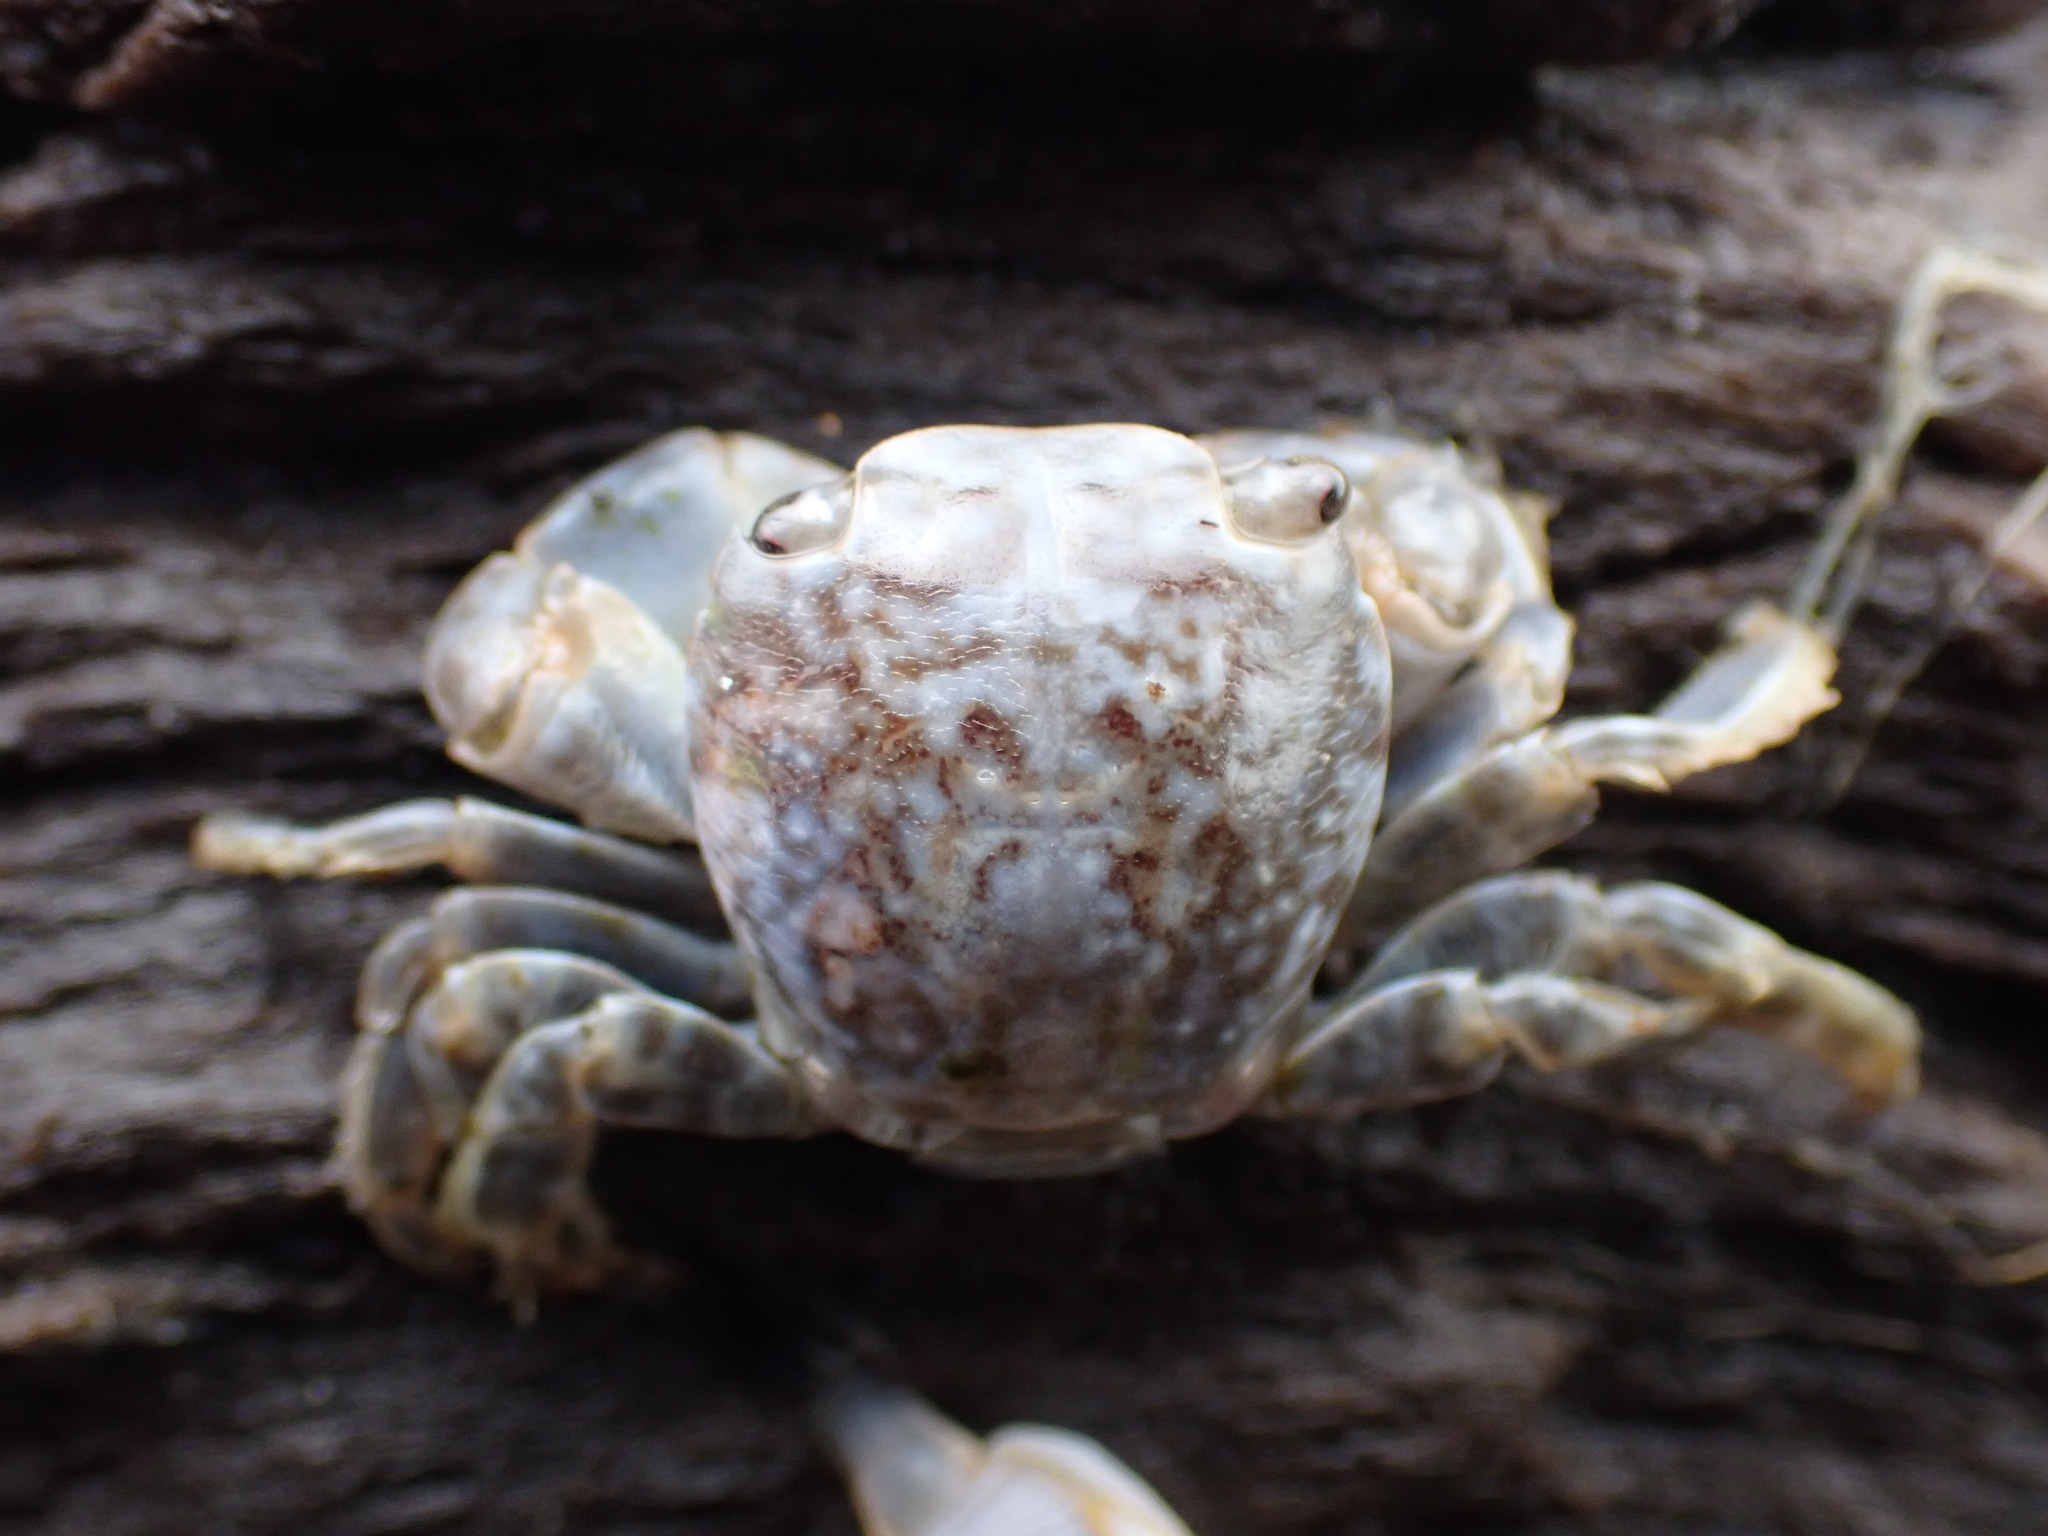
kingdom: Animalia
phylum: Arthropoda
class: Malacostraca
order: Decapoda
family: Grapsidae
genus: Planes
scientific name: Planes minutus
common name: Gulf weed crab
